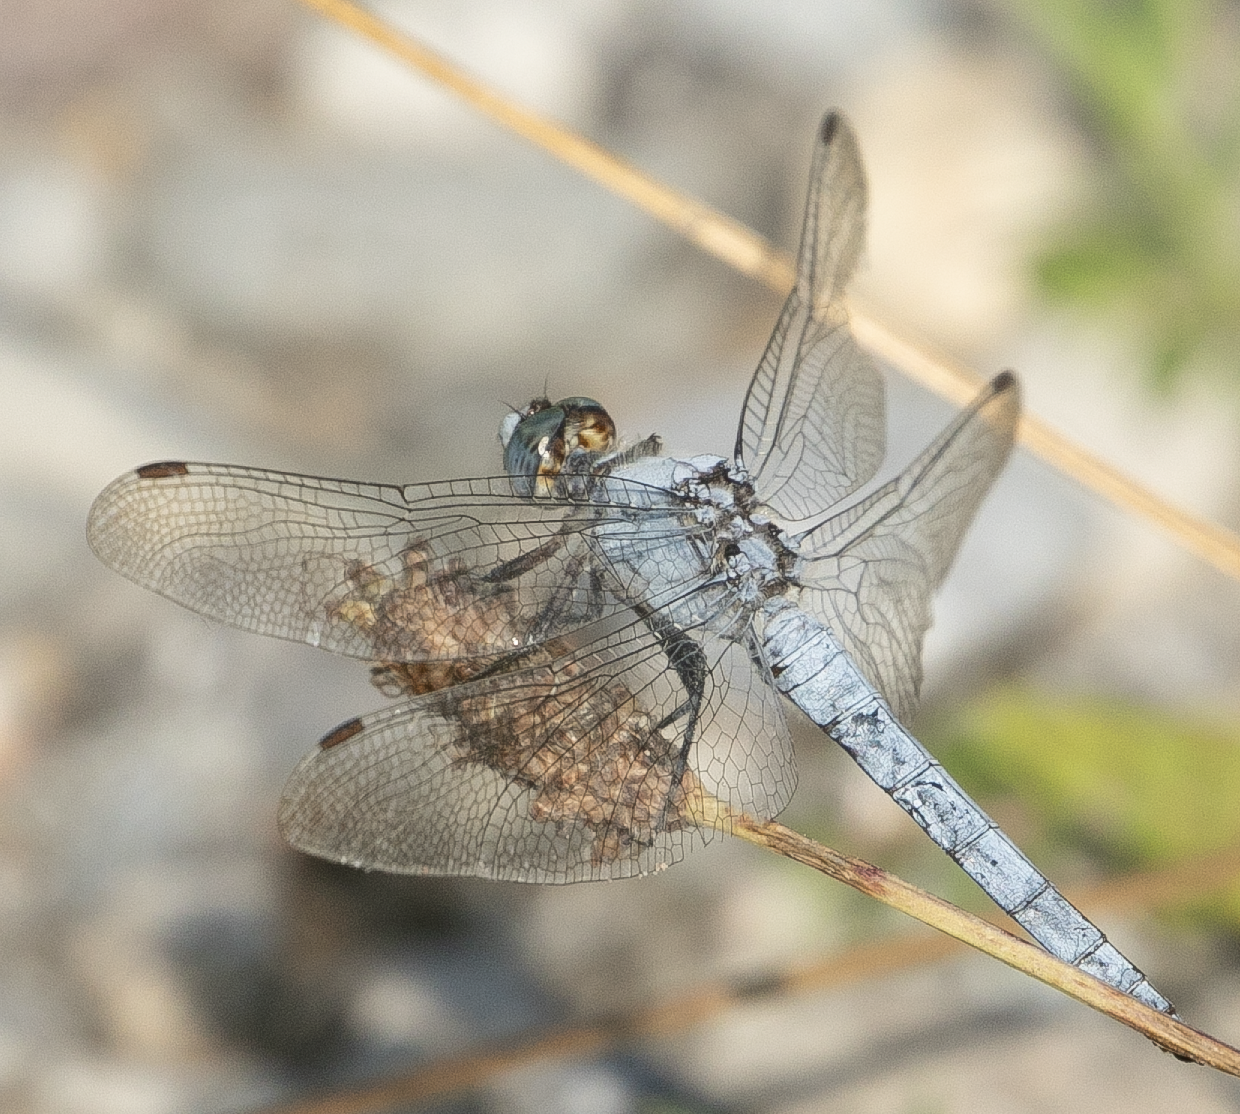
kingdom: Animalia
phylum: Arthropoda
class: Insecta
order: Odonata
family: Libellulidae
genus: Orthetrum
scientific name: Orthetrum brunneum
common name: Southern skimmer
